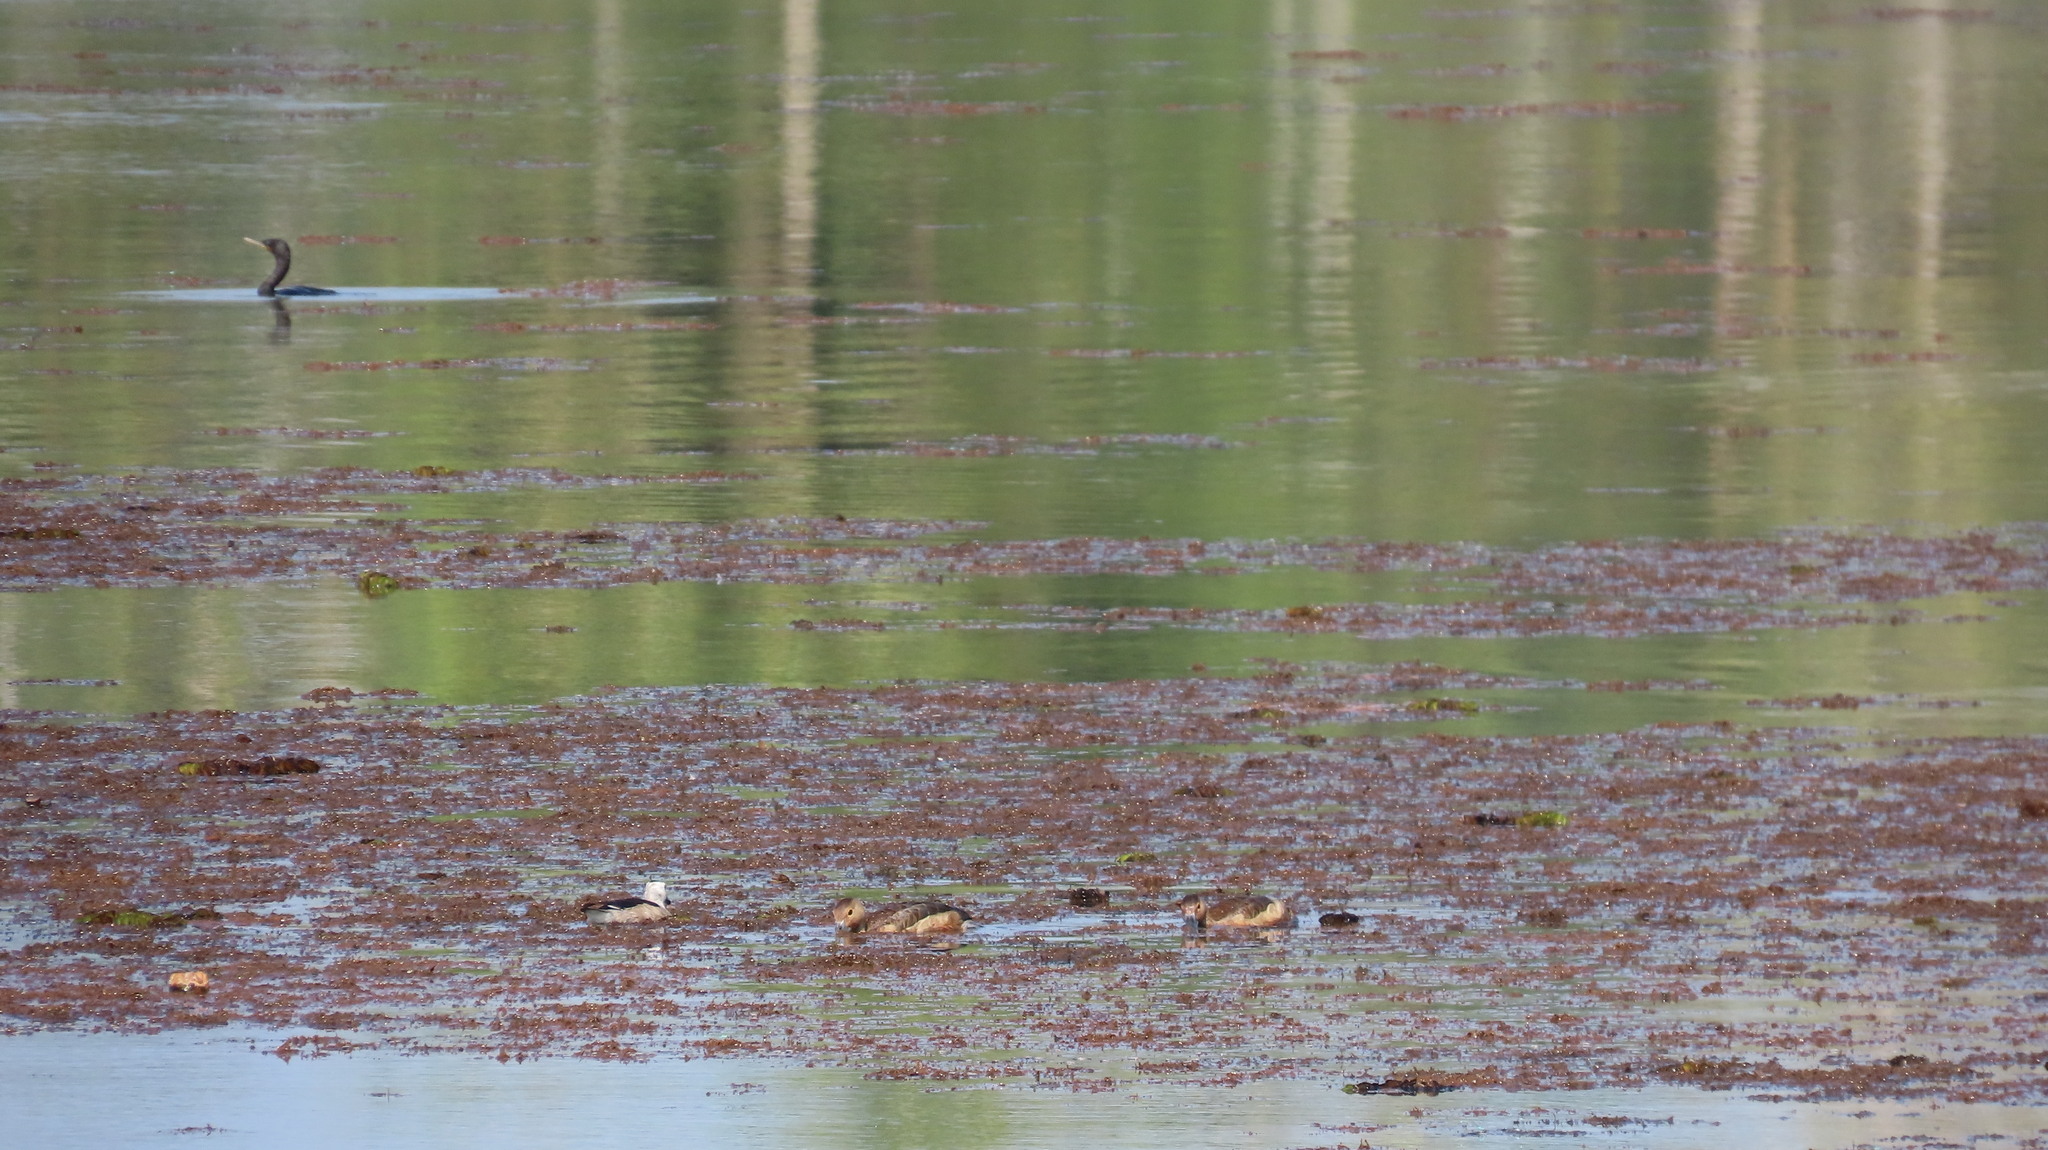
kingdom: Animalia
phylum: Chordata
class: Aves
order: Suliformes
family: Phalacrocoracidae
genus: Phalacrocorax
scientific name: Phalacrocorax fuscicollis
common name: Indian cormorant
